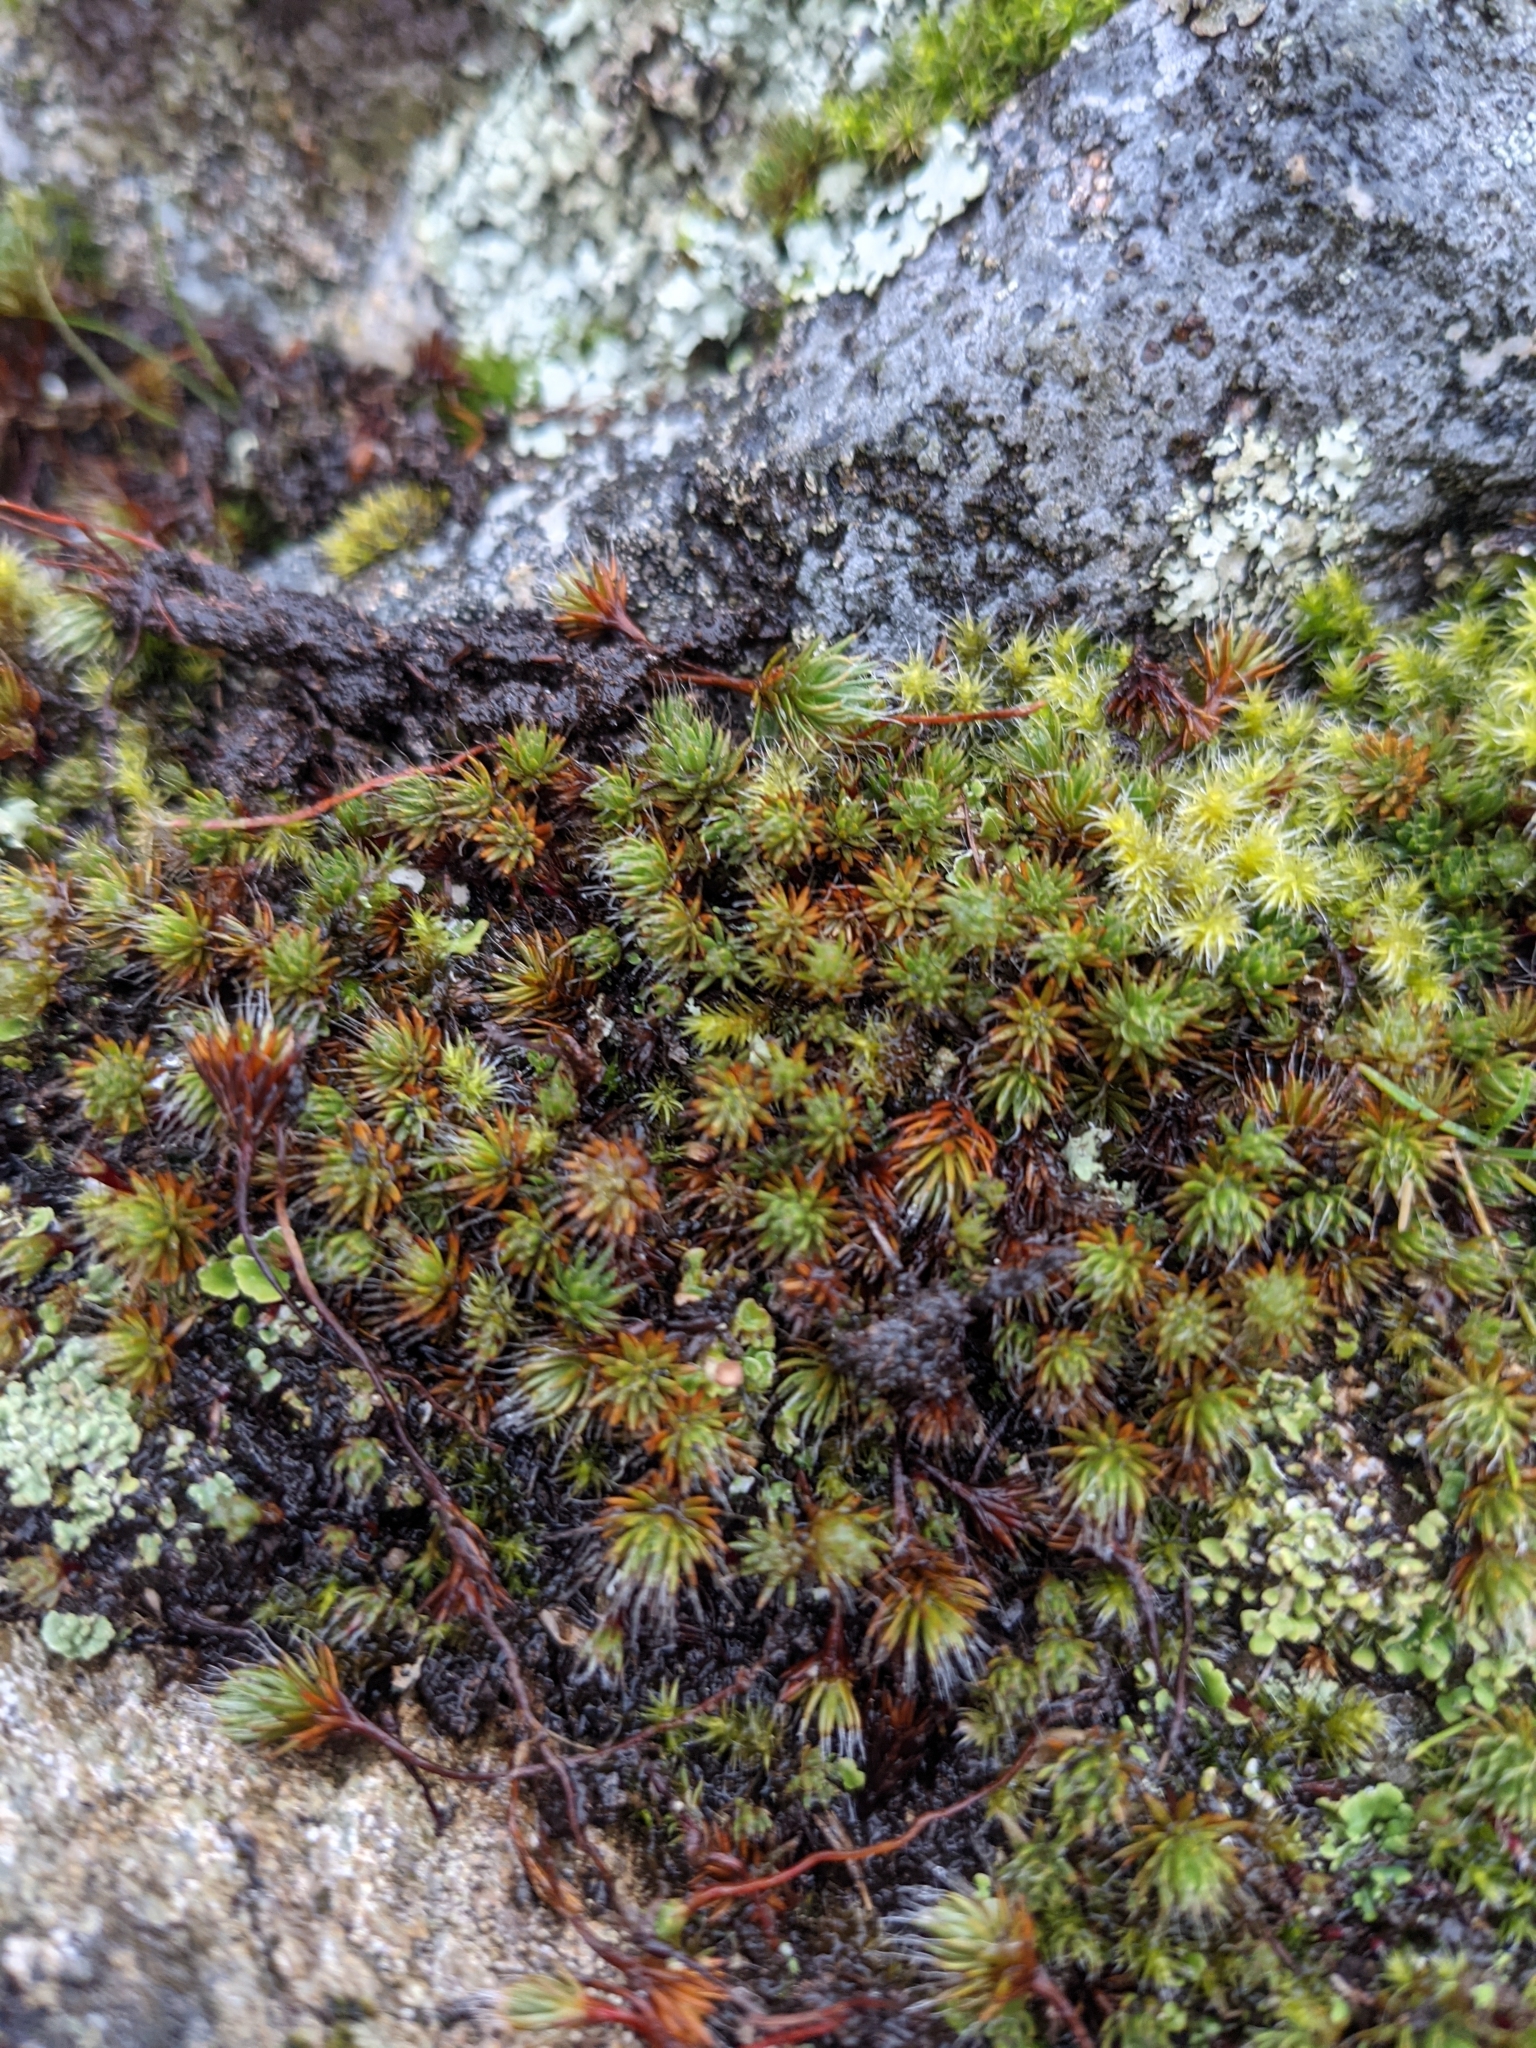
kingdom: Plantae
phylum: Bryophyta
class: Polytrichopsida
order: Polytrichales
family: Polytrichaceae
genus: Polytrichum
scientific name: Polytrichum piliferum
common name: Bristly haircap
